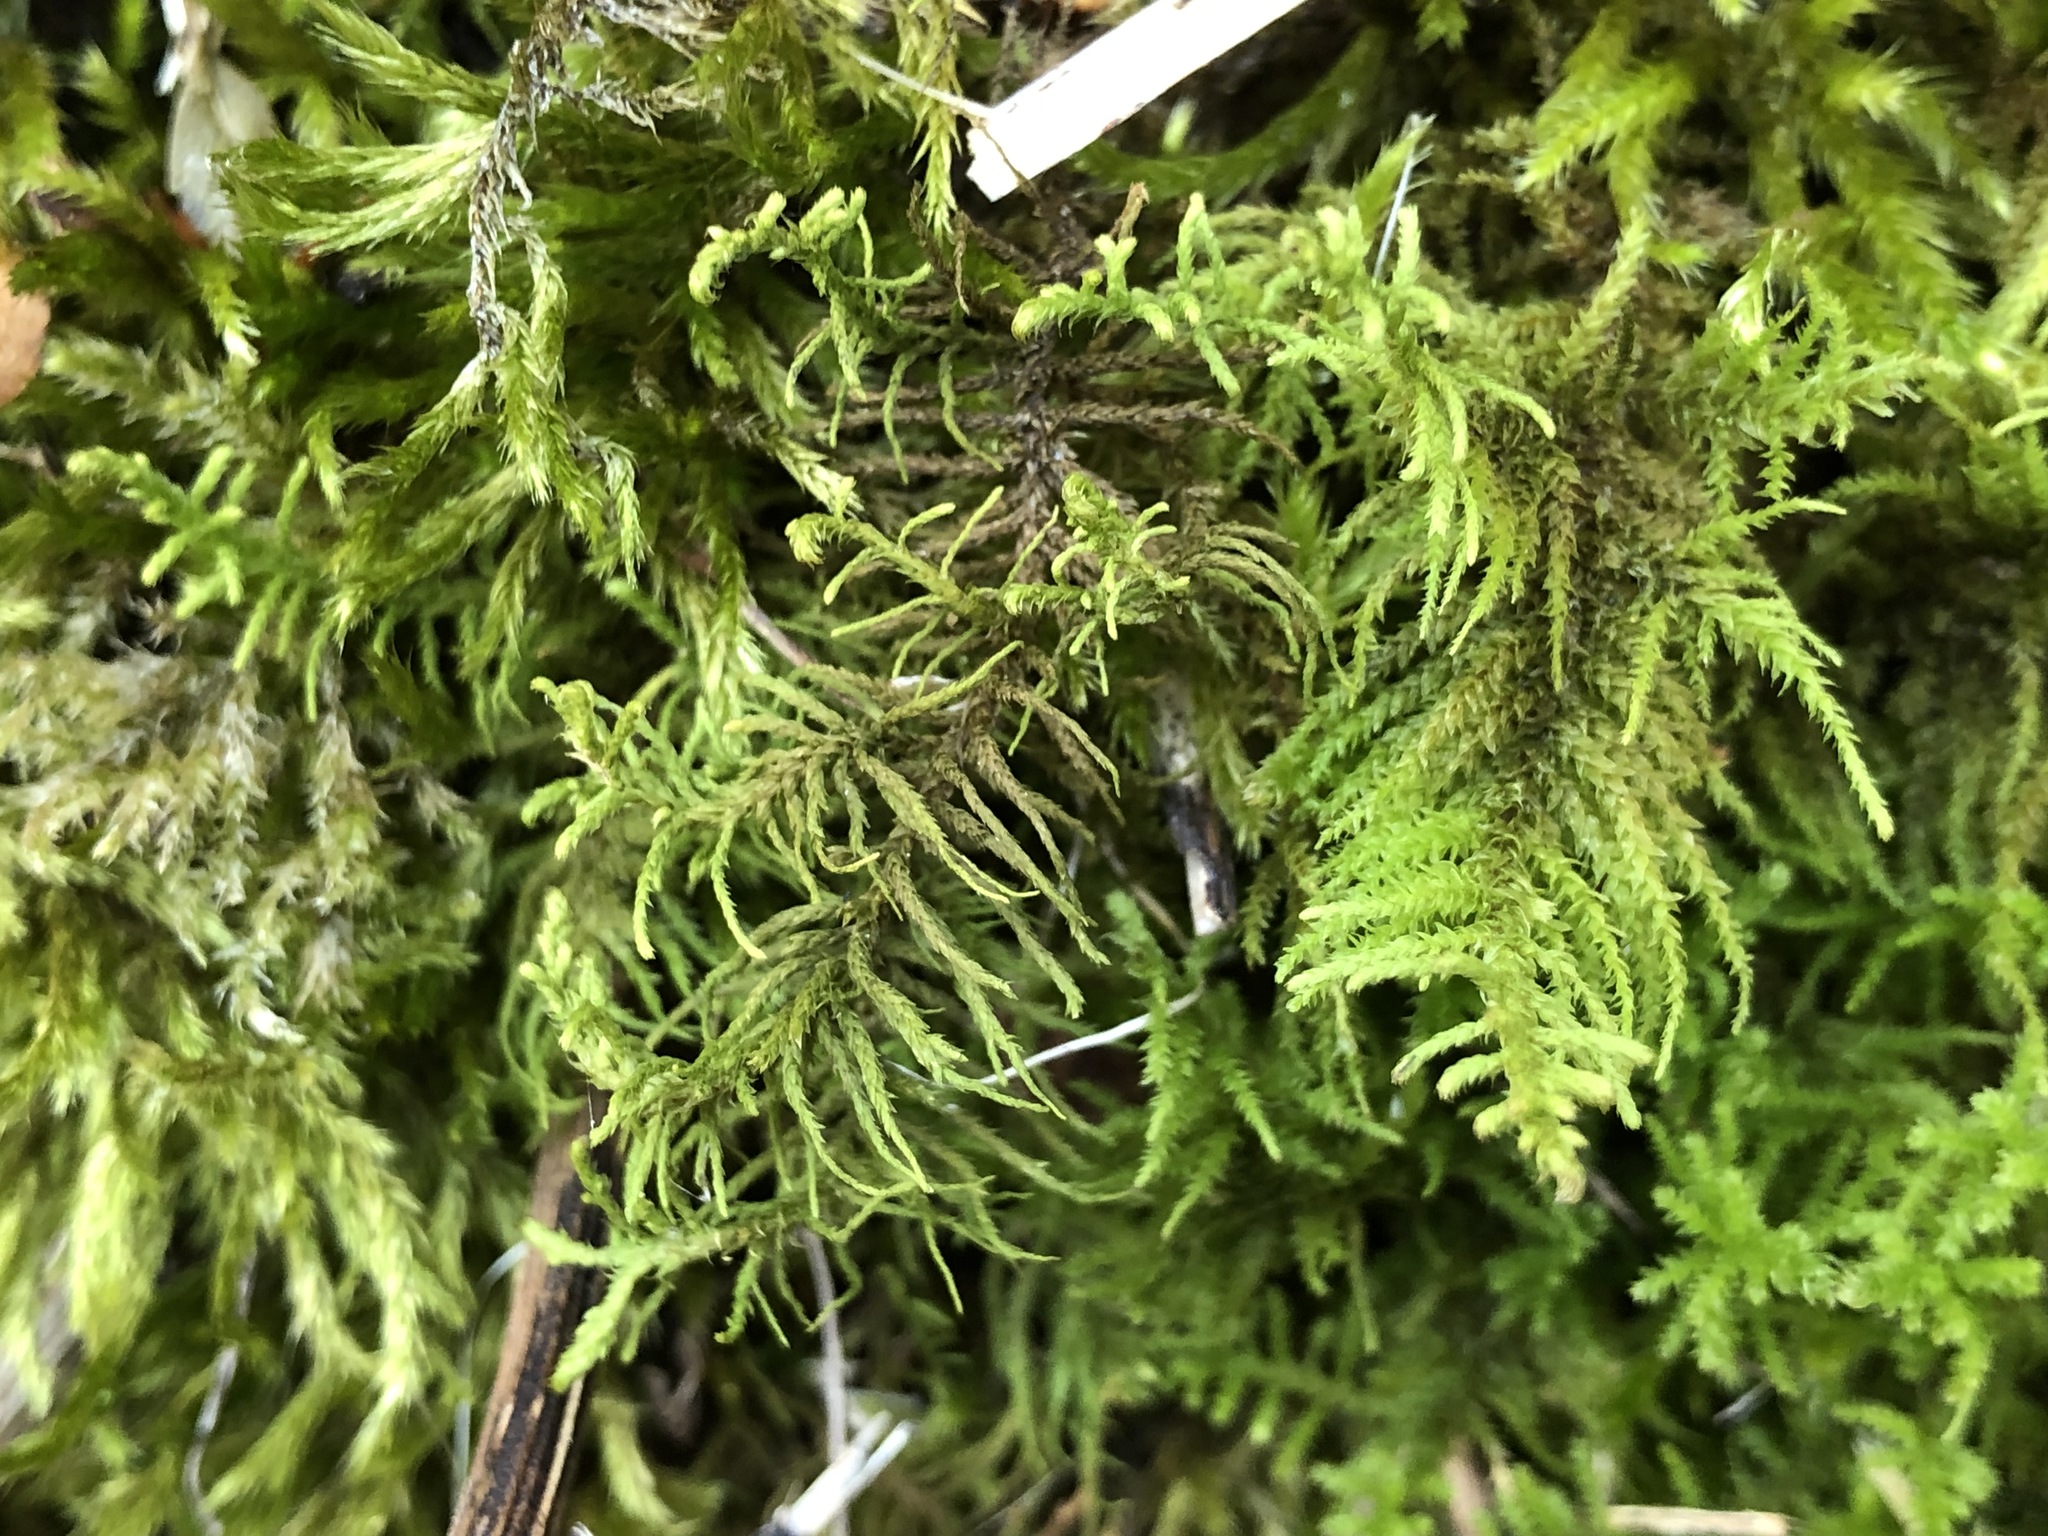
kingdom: Plantae
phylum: Bryophyta
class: Bryopsida
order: Hypnales
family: Thuidiaceae
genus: Abietinella
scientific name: Abietinella abietina
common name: Wiry fern moss
